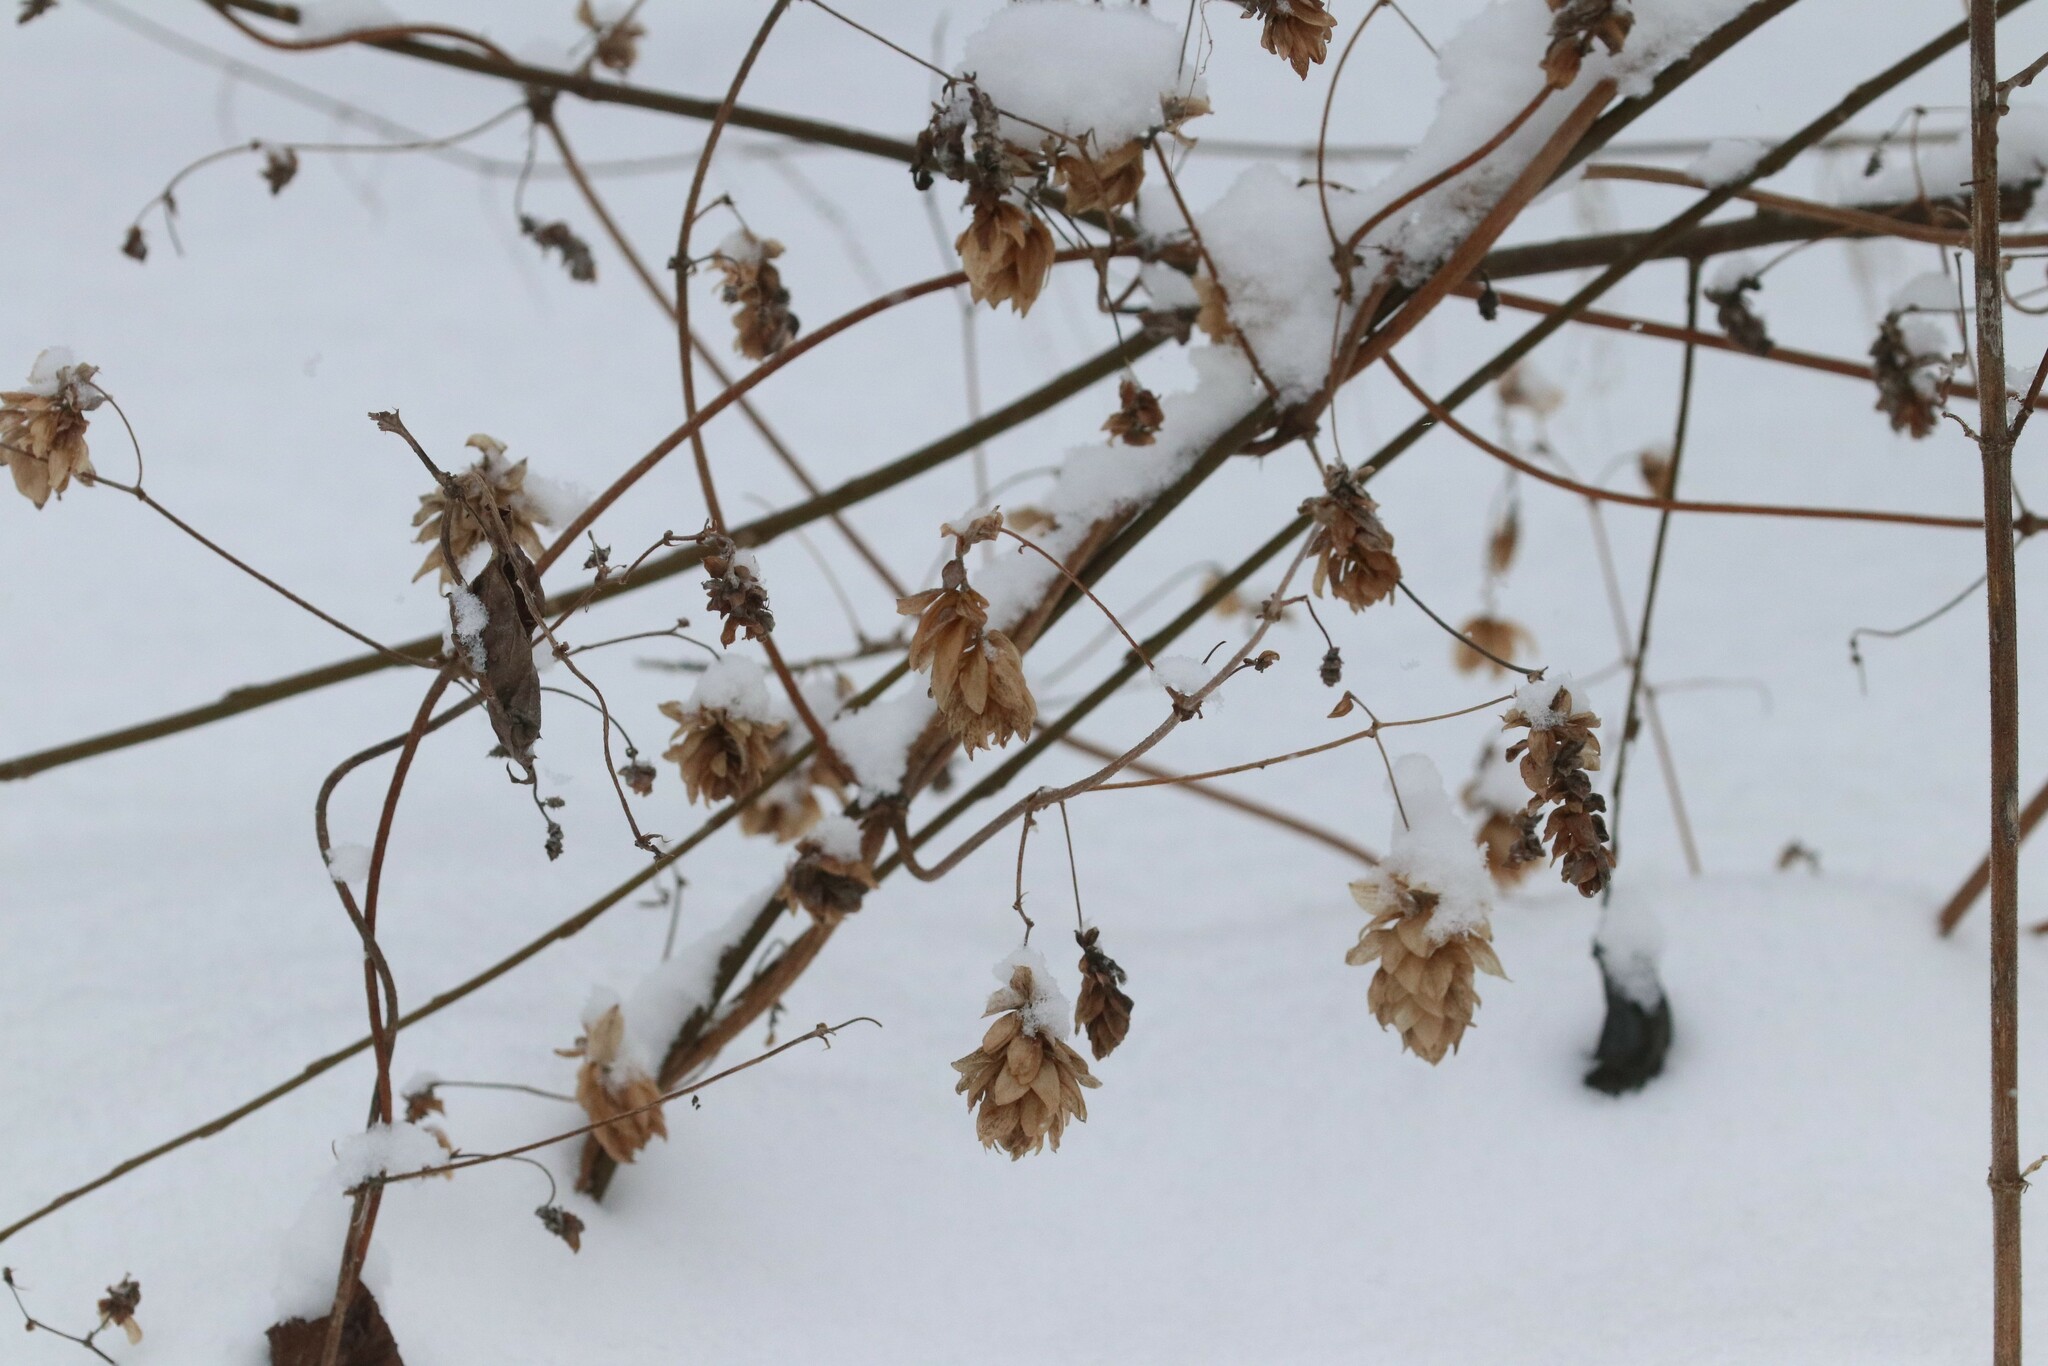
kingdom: Plantae
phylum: Tracheophyta
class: Magnoliopsida
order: Rosales
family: Cannabaceae
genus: Humulus
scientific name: Humulus lupulus
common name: Hop
